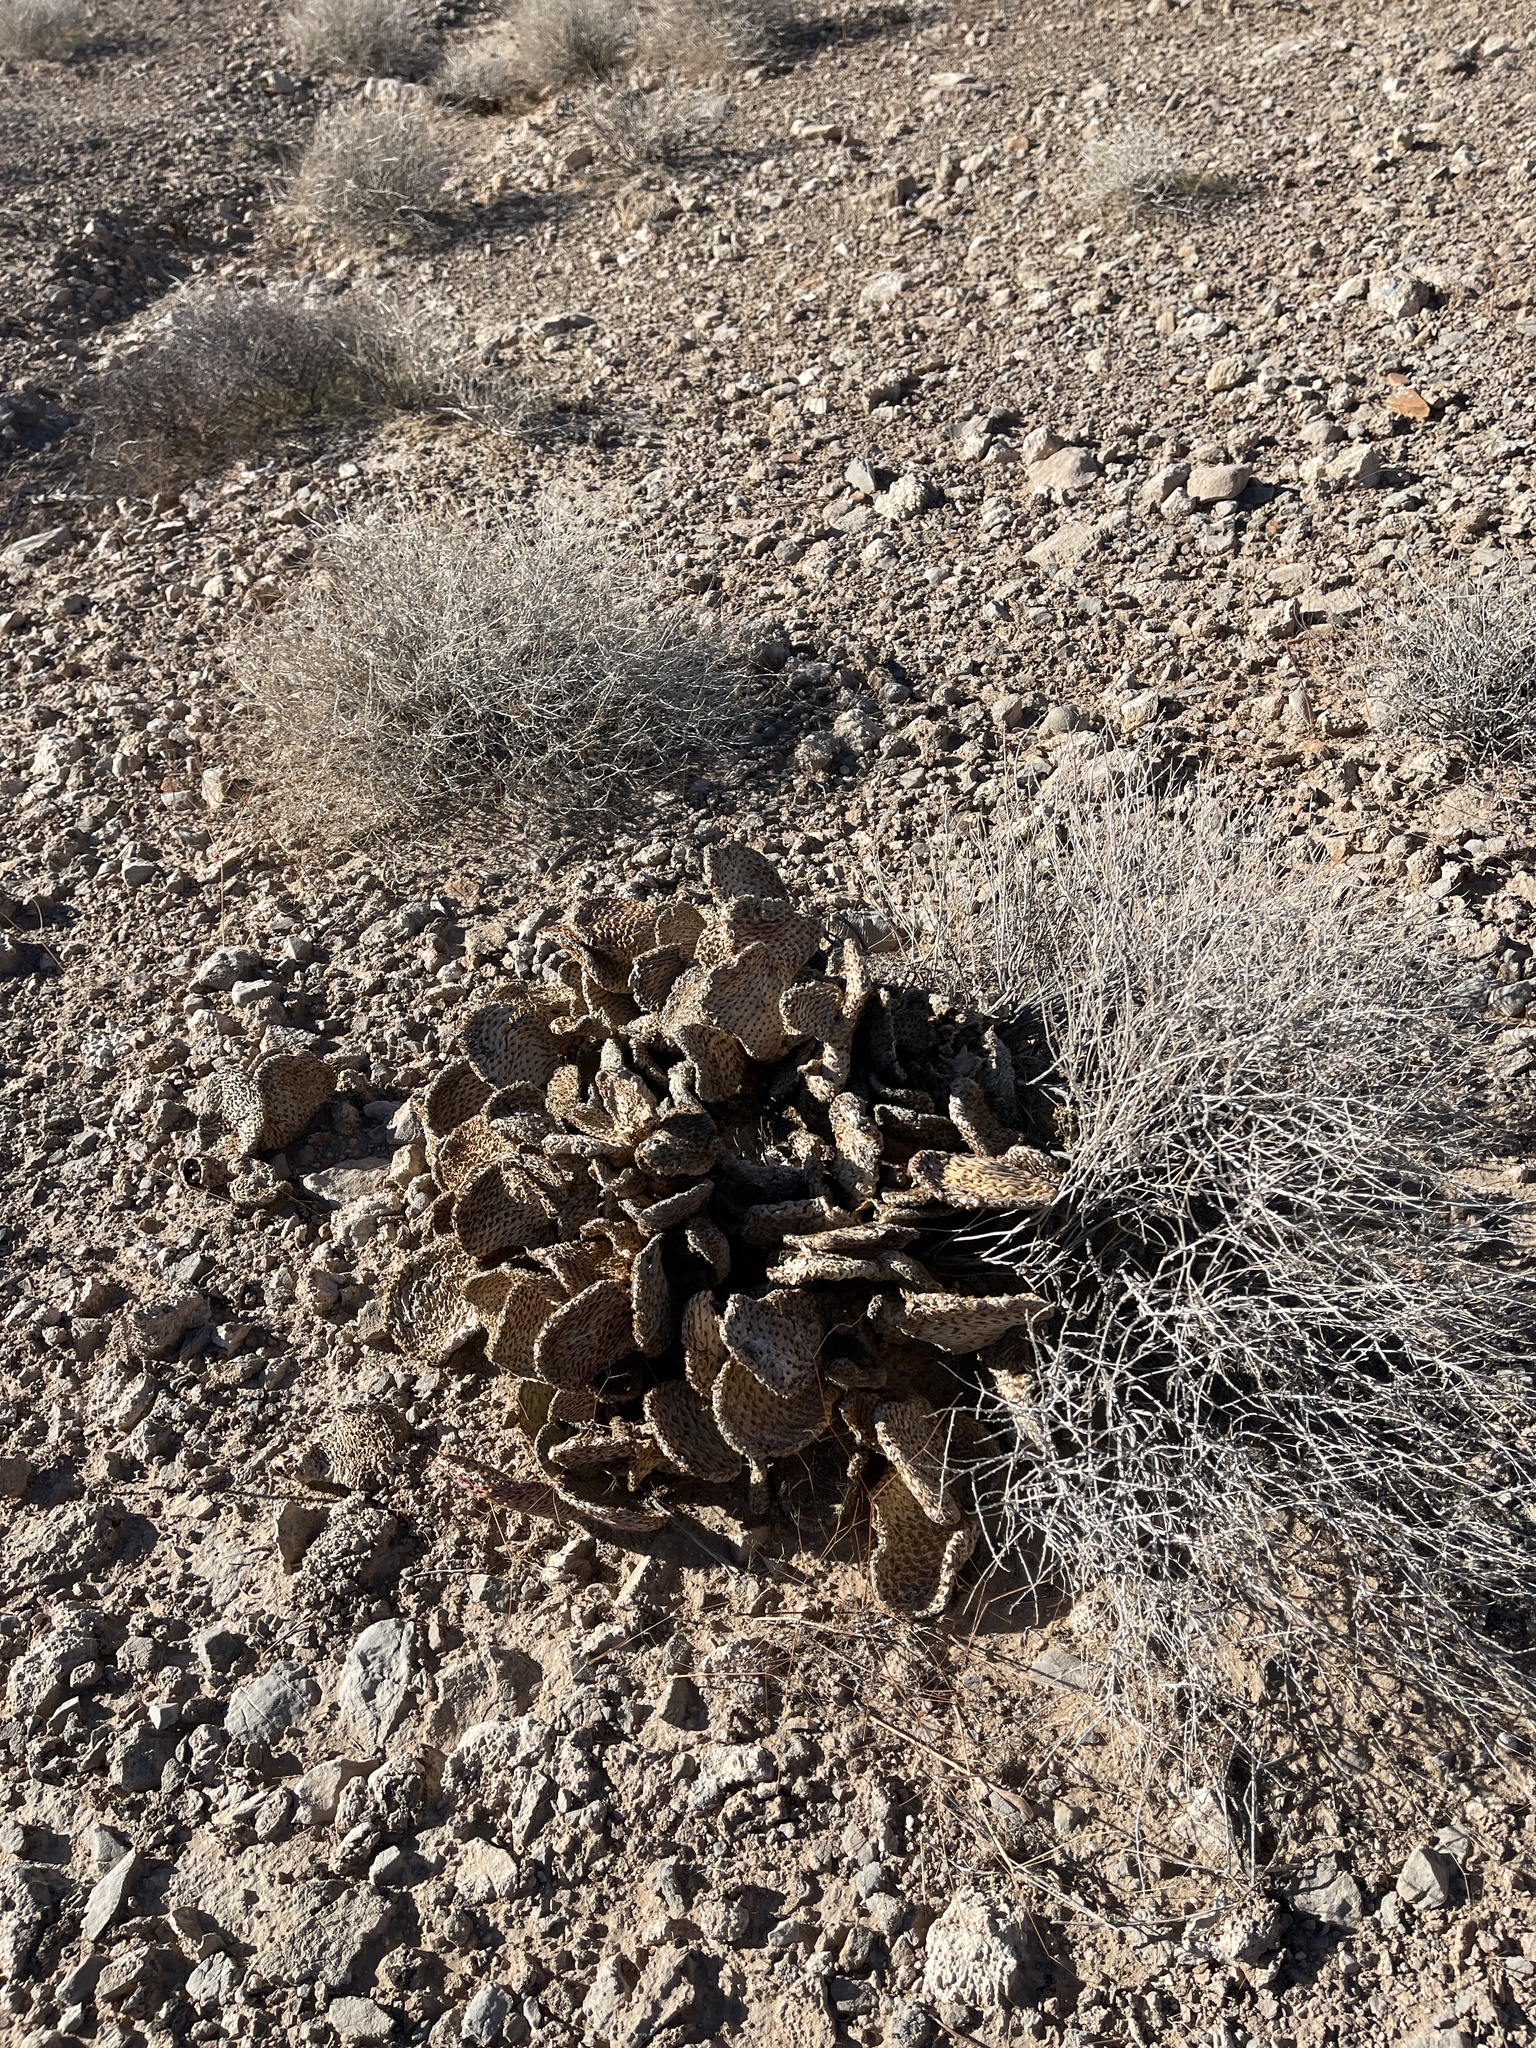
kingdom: Plantae
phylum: Tracheophyta
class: Magnoliopsida
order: Caryophyllales
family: Cactaceae
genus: Opuntia
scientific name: Opuntia basilaris
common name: Beavertail prickly-pear
